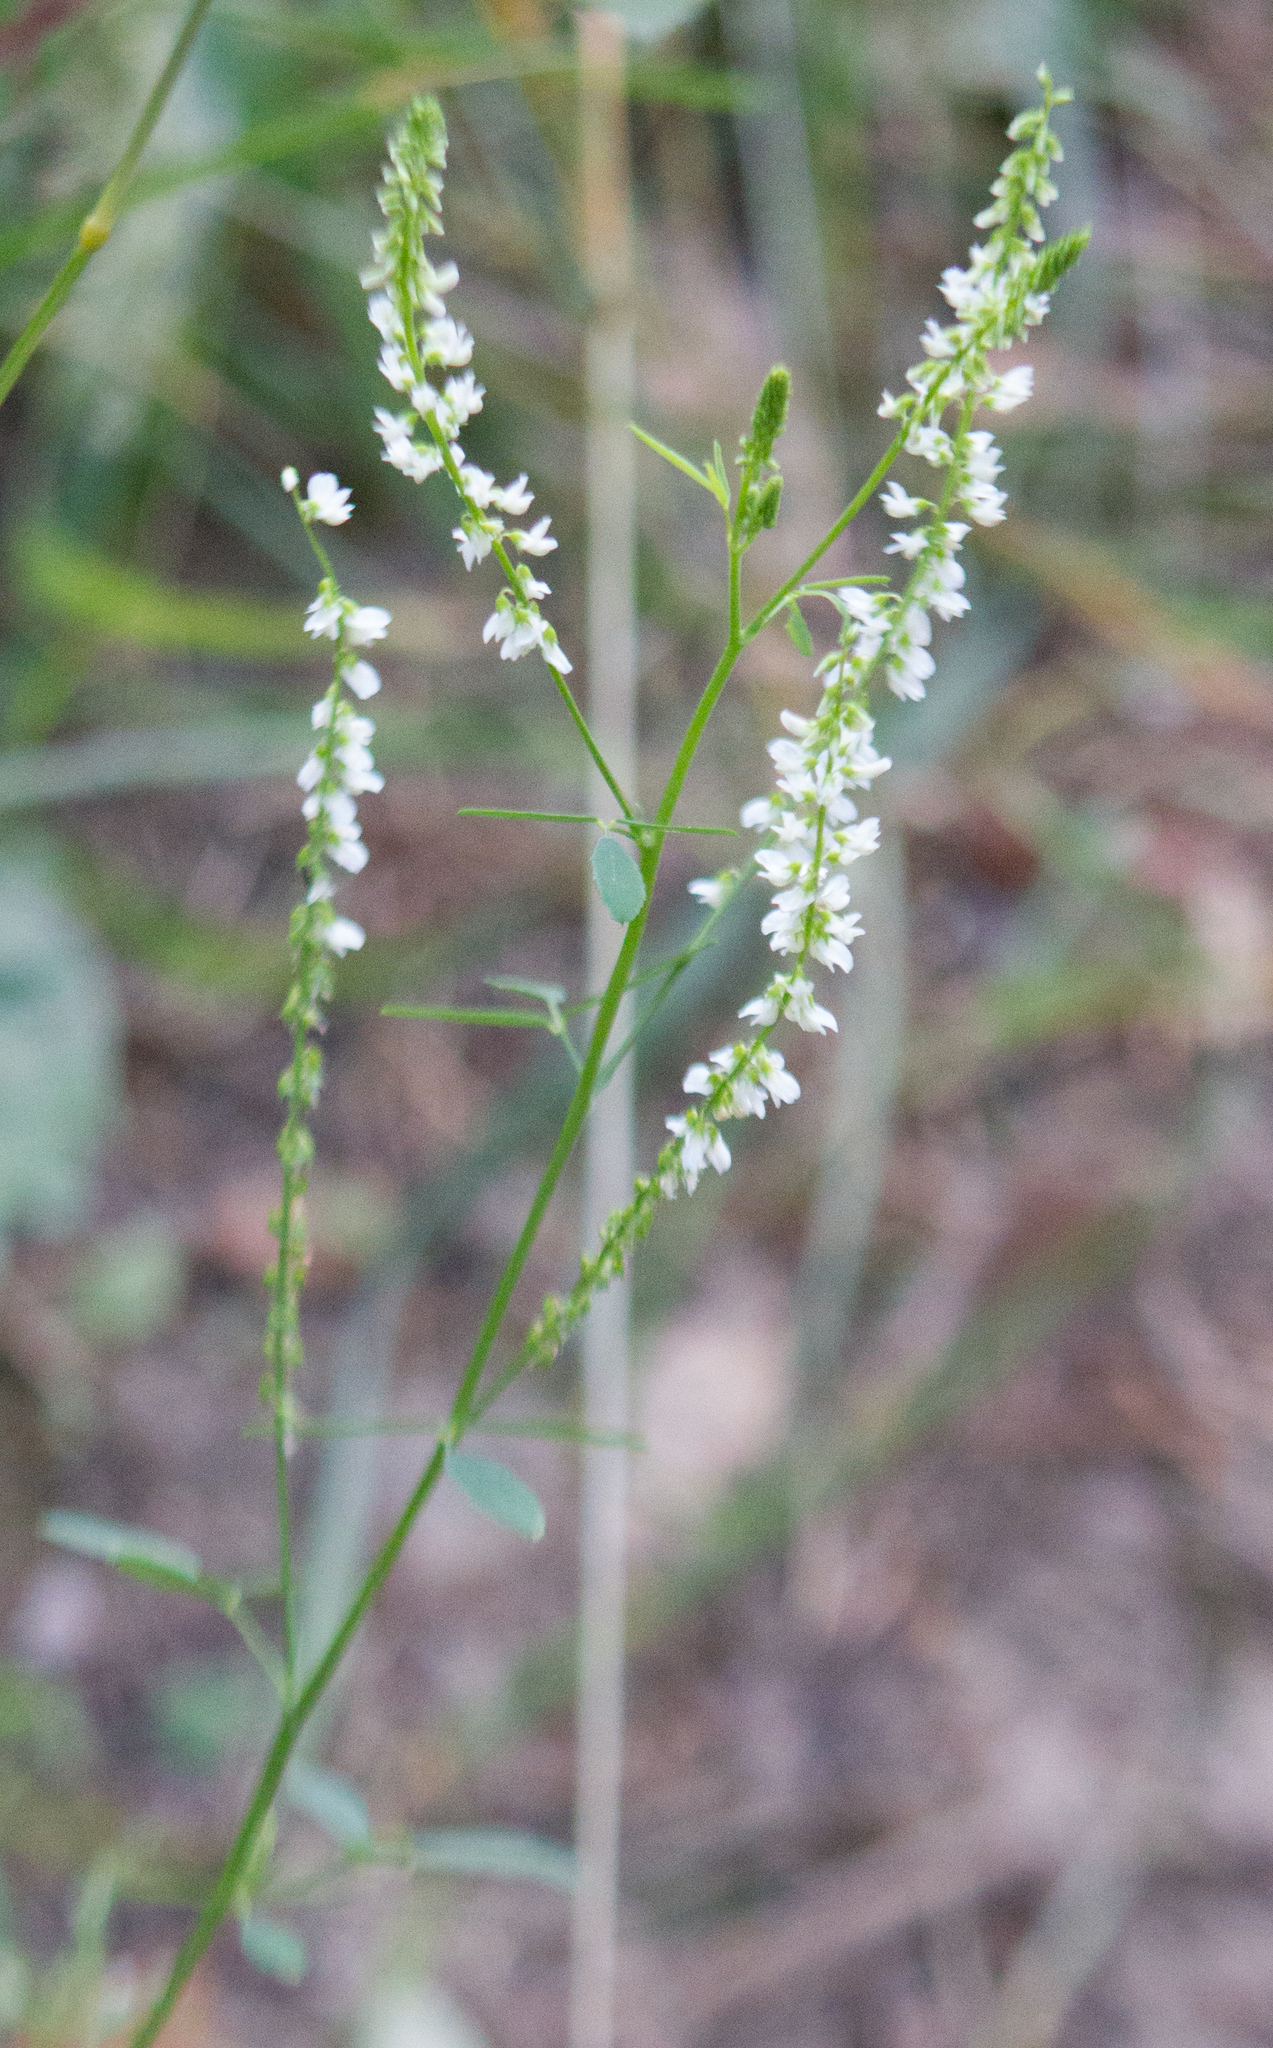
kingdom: Plantae
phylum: Tracheophyta
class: Magnoliopsida
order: Fabales
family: Fabaceae
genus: Melilotus
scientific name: Melilotus albus
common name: White melilot
